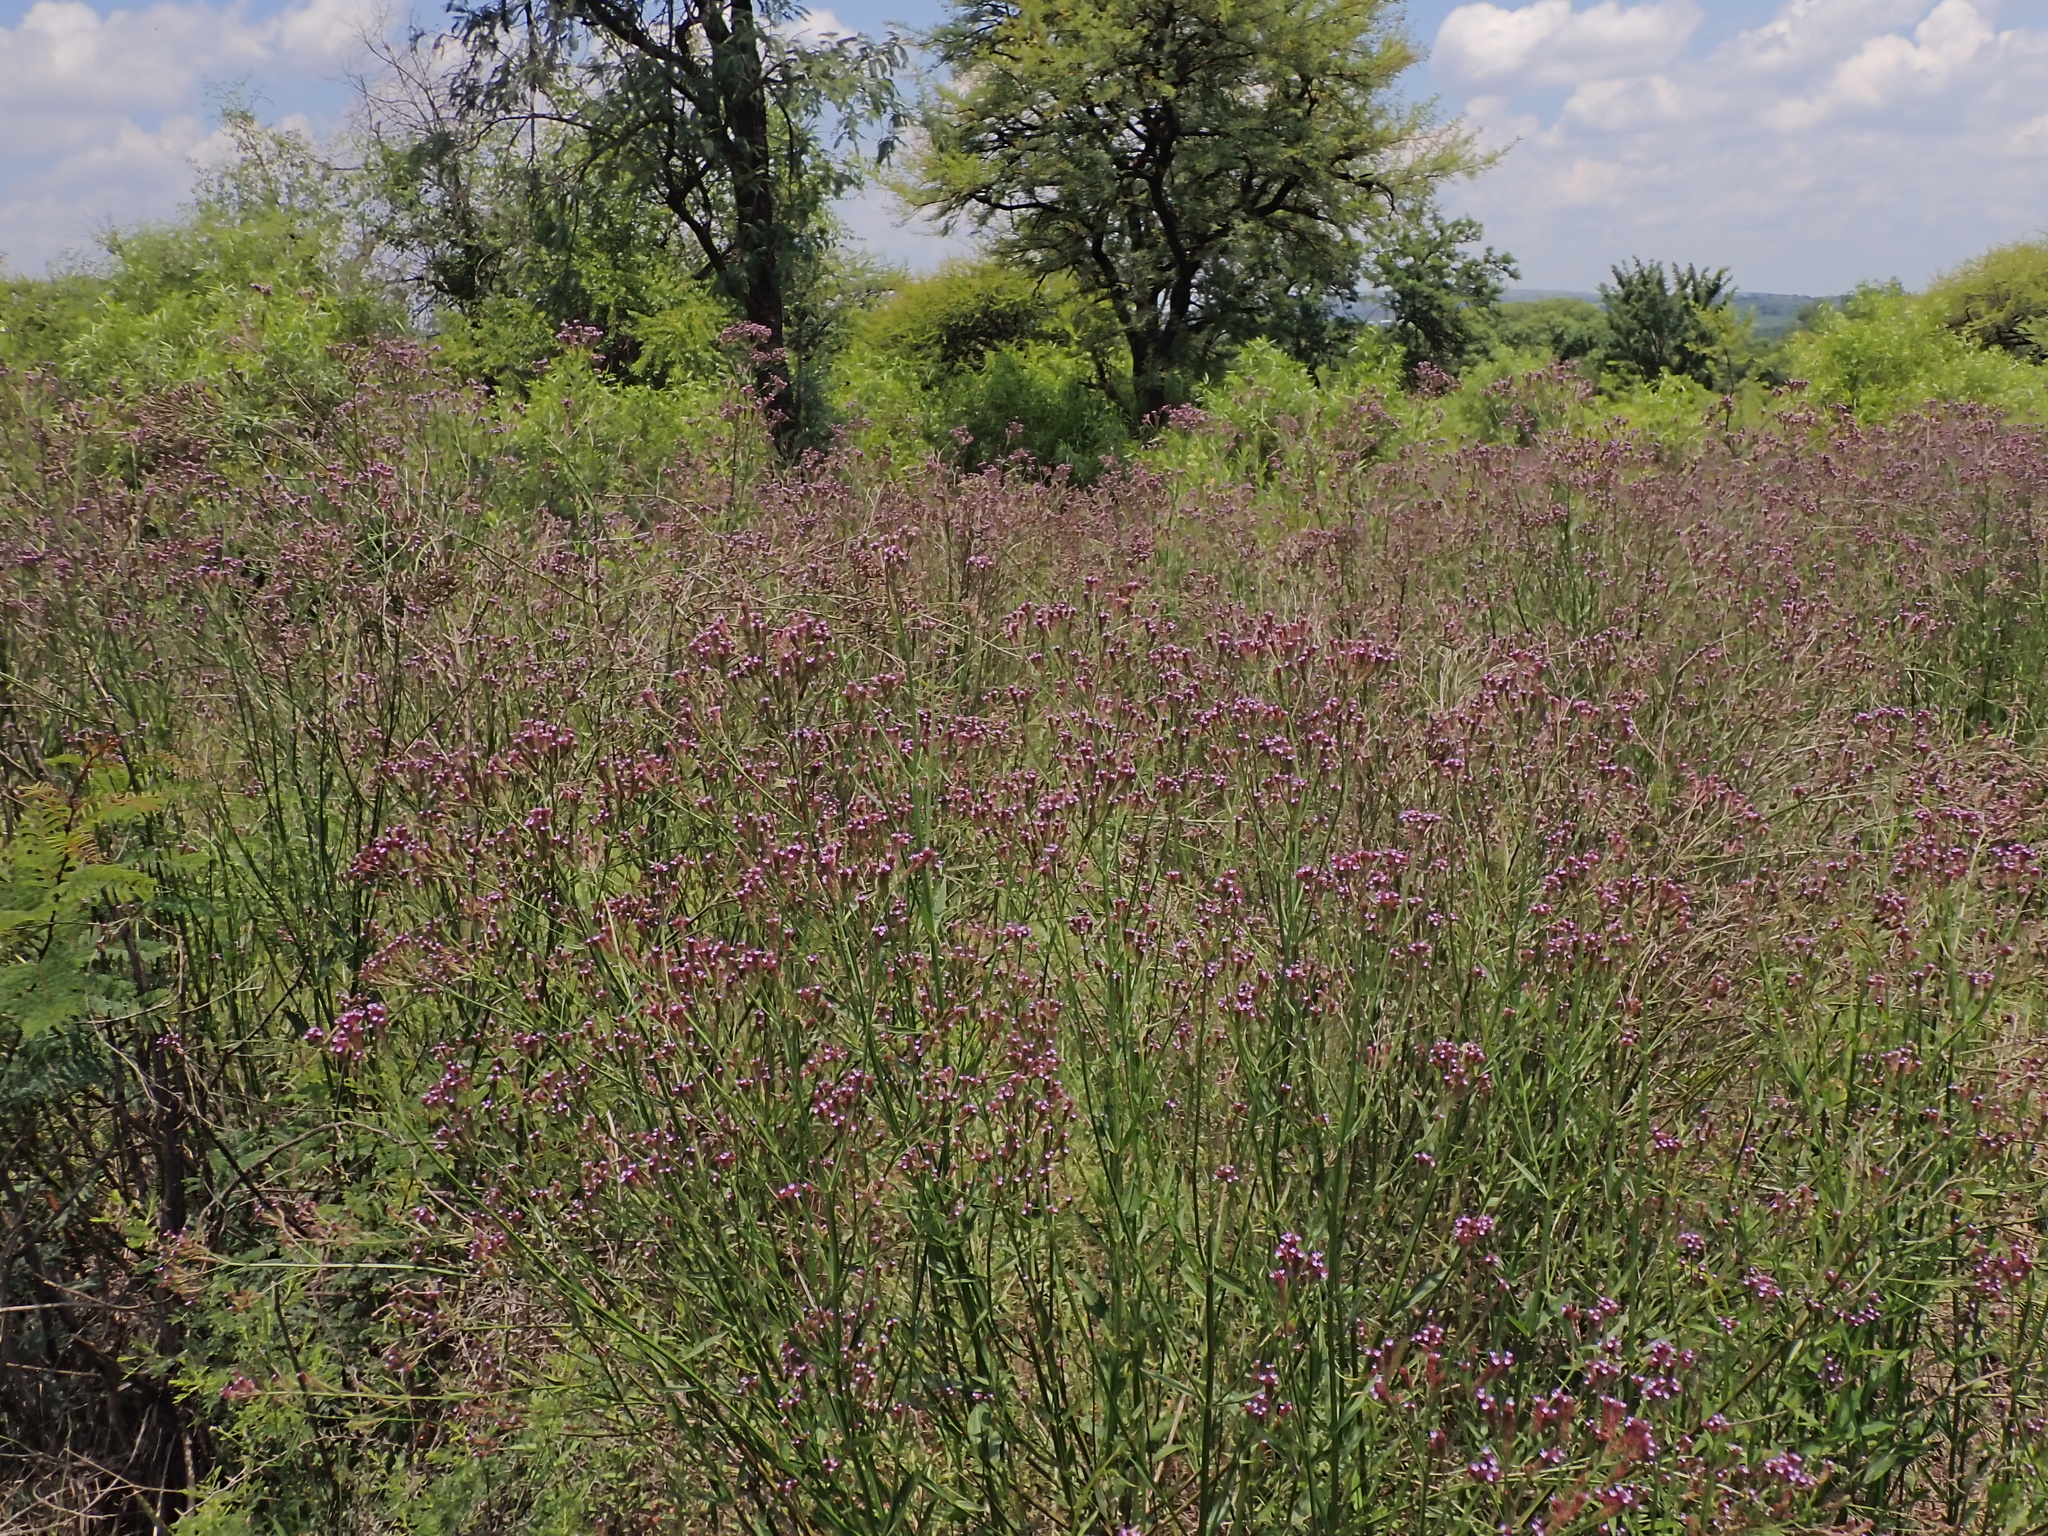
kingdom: Plantae
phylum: Tracheophyta
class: Magnoliopsida
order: Lamiales
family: Verbenaceae
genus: Verbena
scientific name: Verbena brasiliensis
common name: Brazilian vervain
